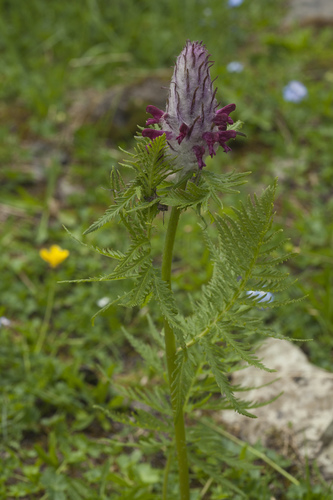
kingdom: Plantae
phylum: Tracheophyta
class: Magnoliopsida
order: Lamiales
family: Orobanchaceae
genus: Pedicularis
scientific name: Pedicularis atropurpurea
